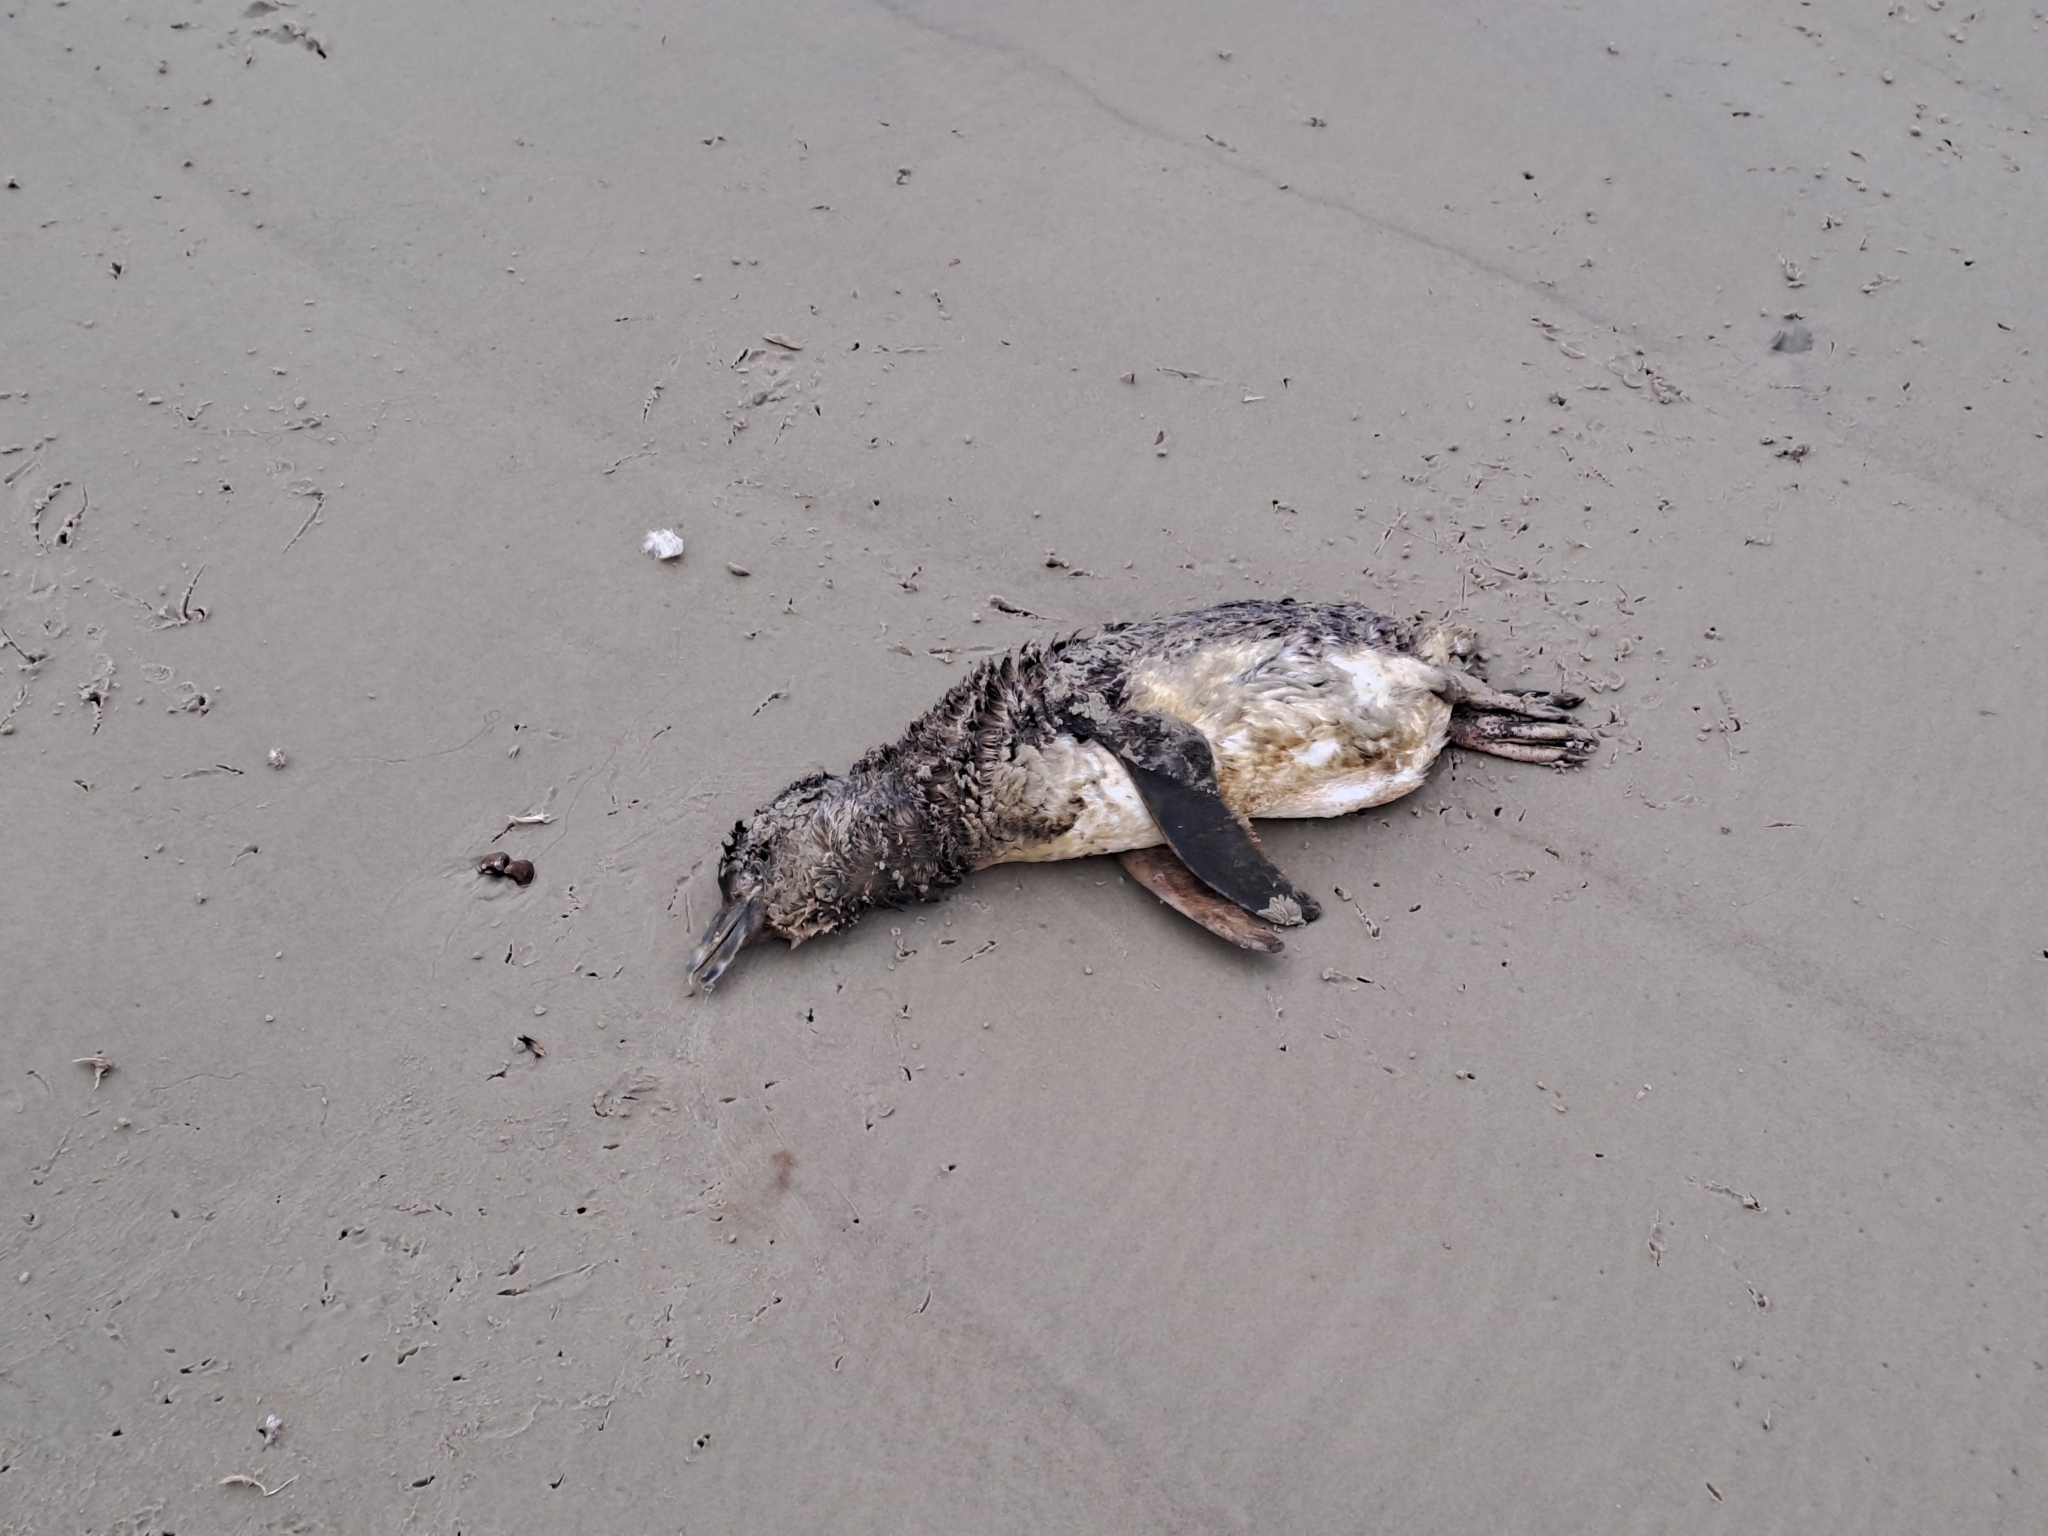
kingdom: Animalia
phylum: Chordata
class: Aves
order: Sphenisciformes
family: Spheniscidae
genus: Spheniscus
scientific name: Spheniscus magellanicus
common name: Magellanic penguin
